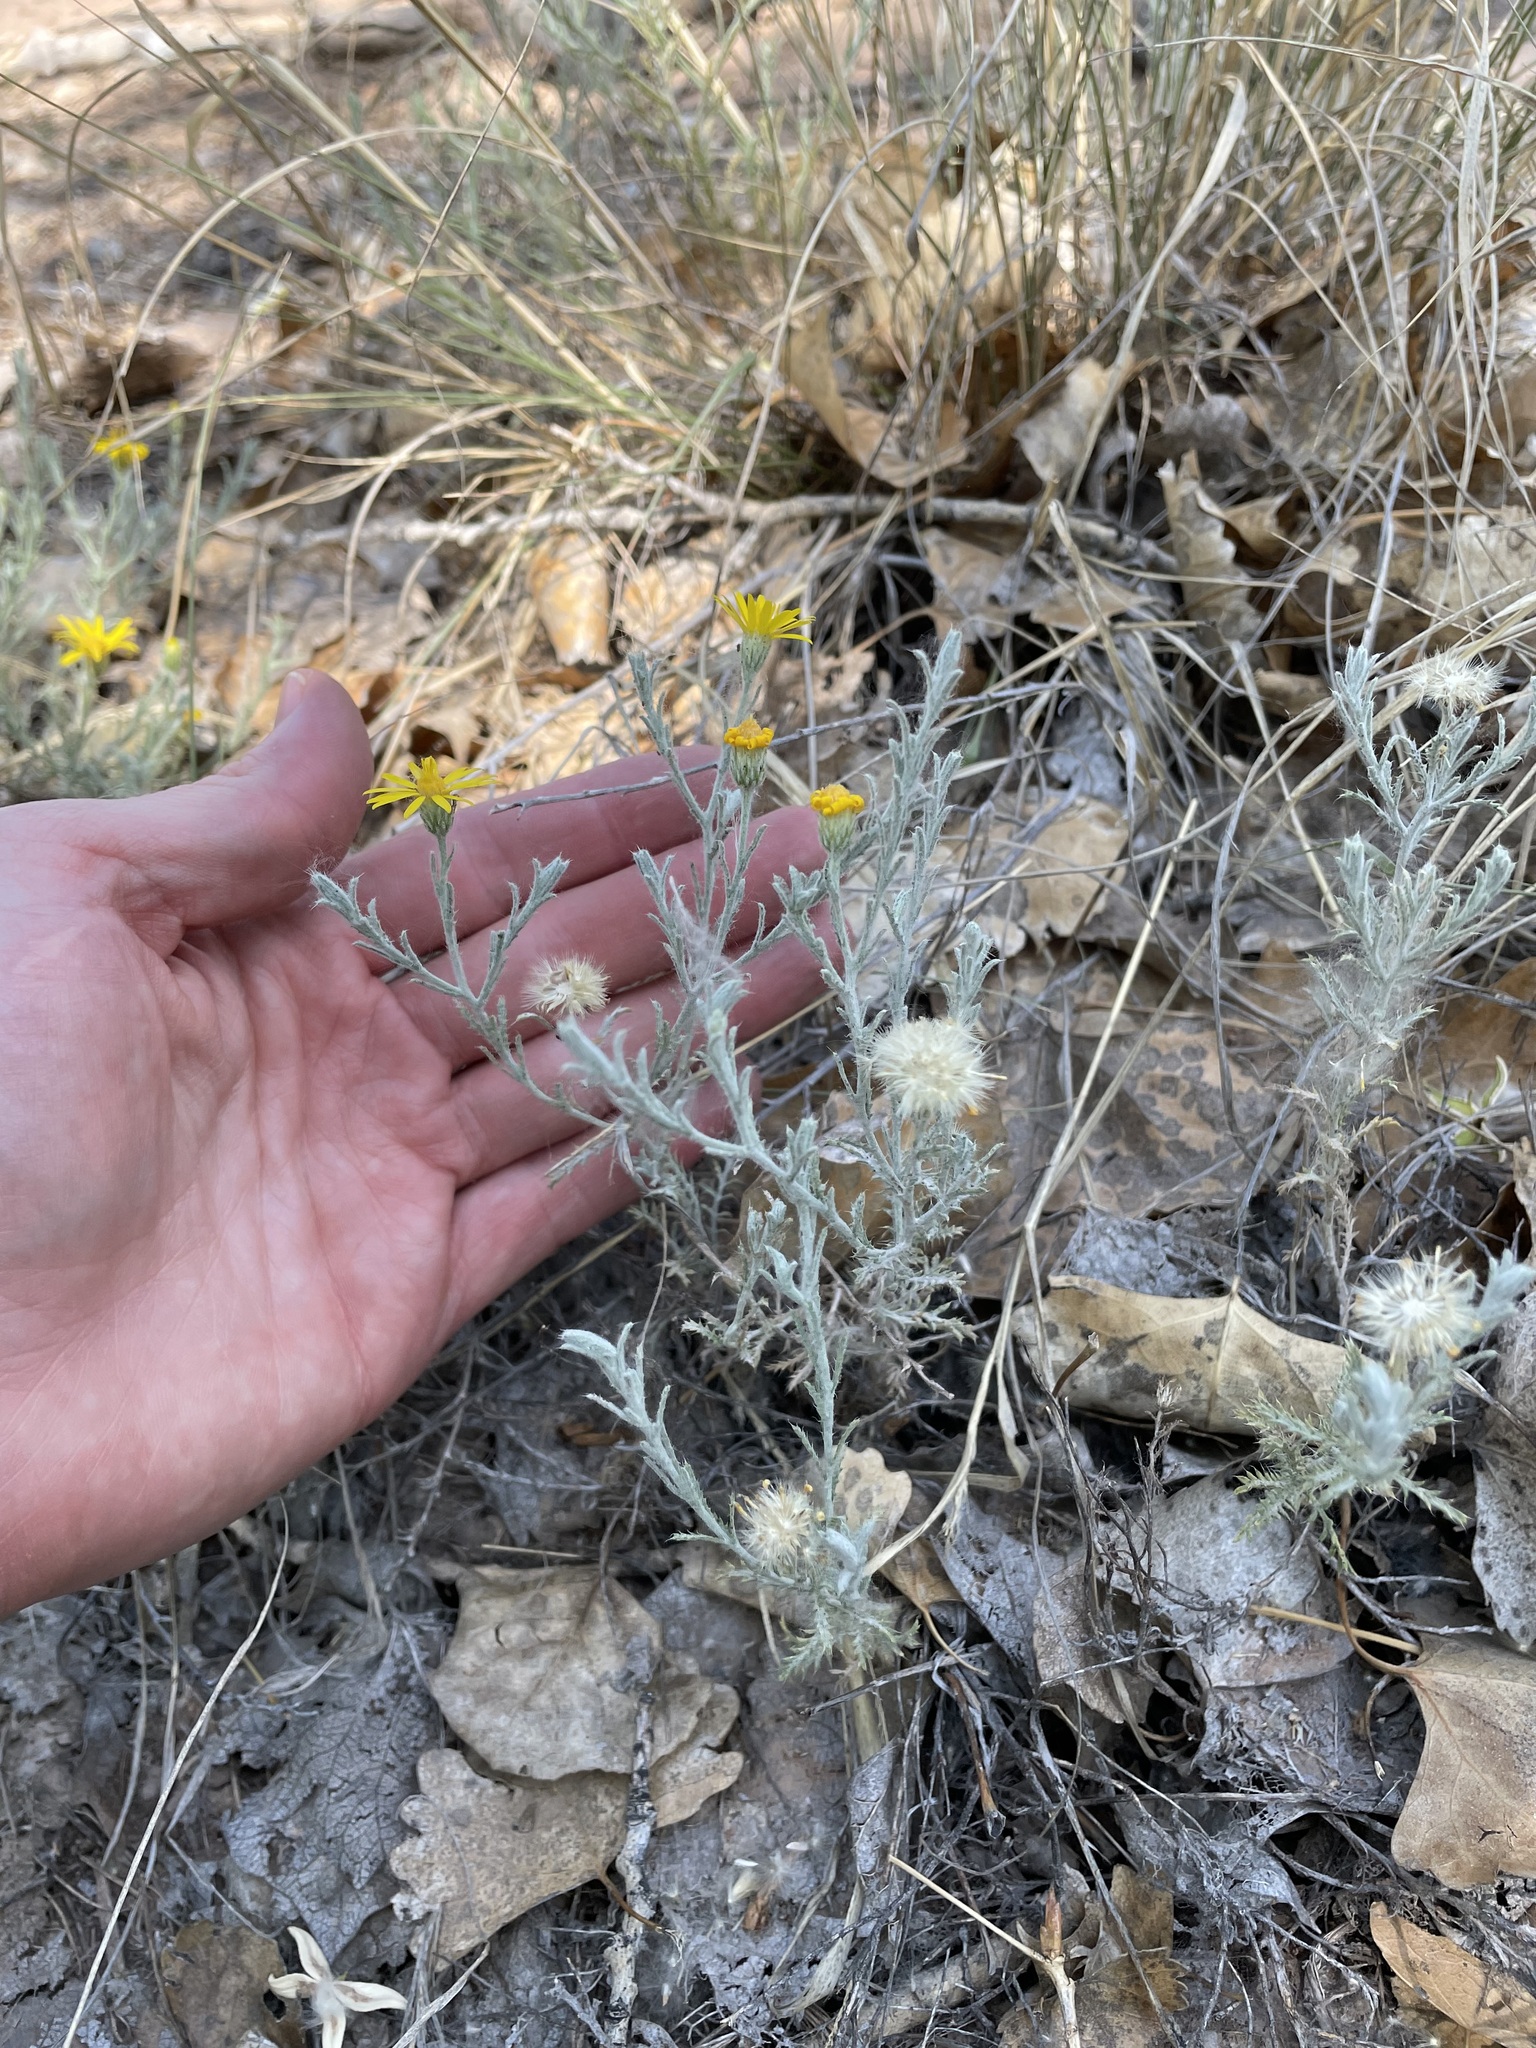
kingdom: Plantae
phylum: Tracheophyta
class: Magnoliopsida
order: Asterales
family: Asteraceae
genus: Xanthisma
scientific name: Xanthisma spinulosum
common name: Spiny goldenweed
